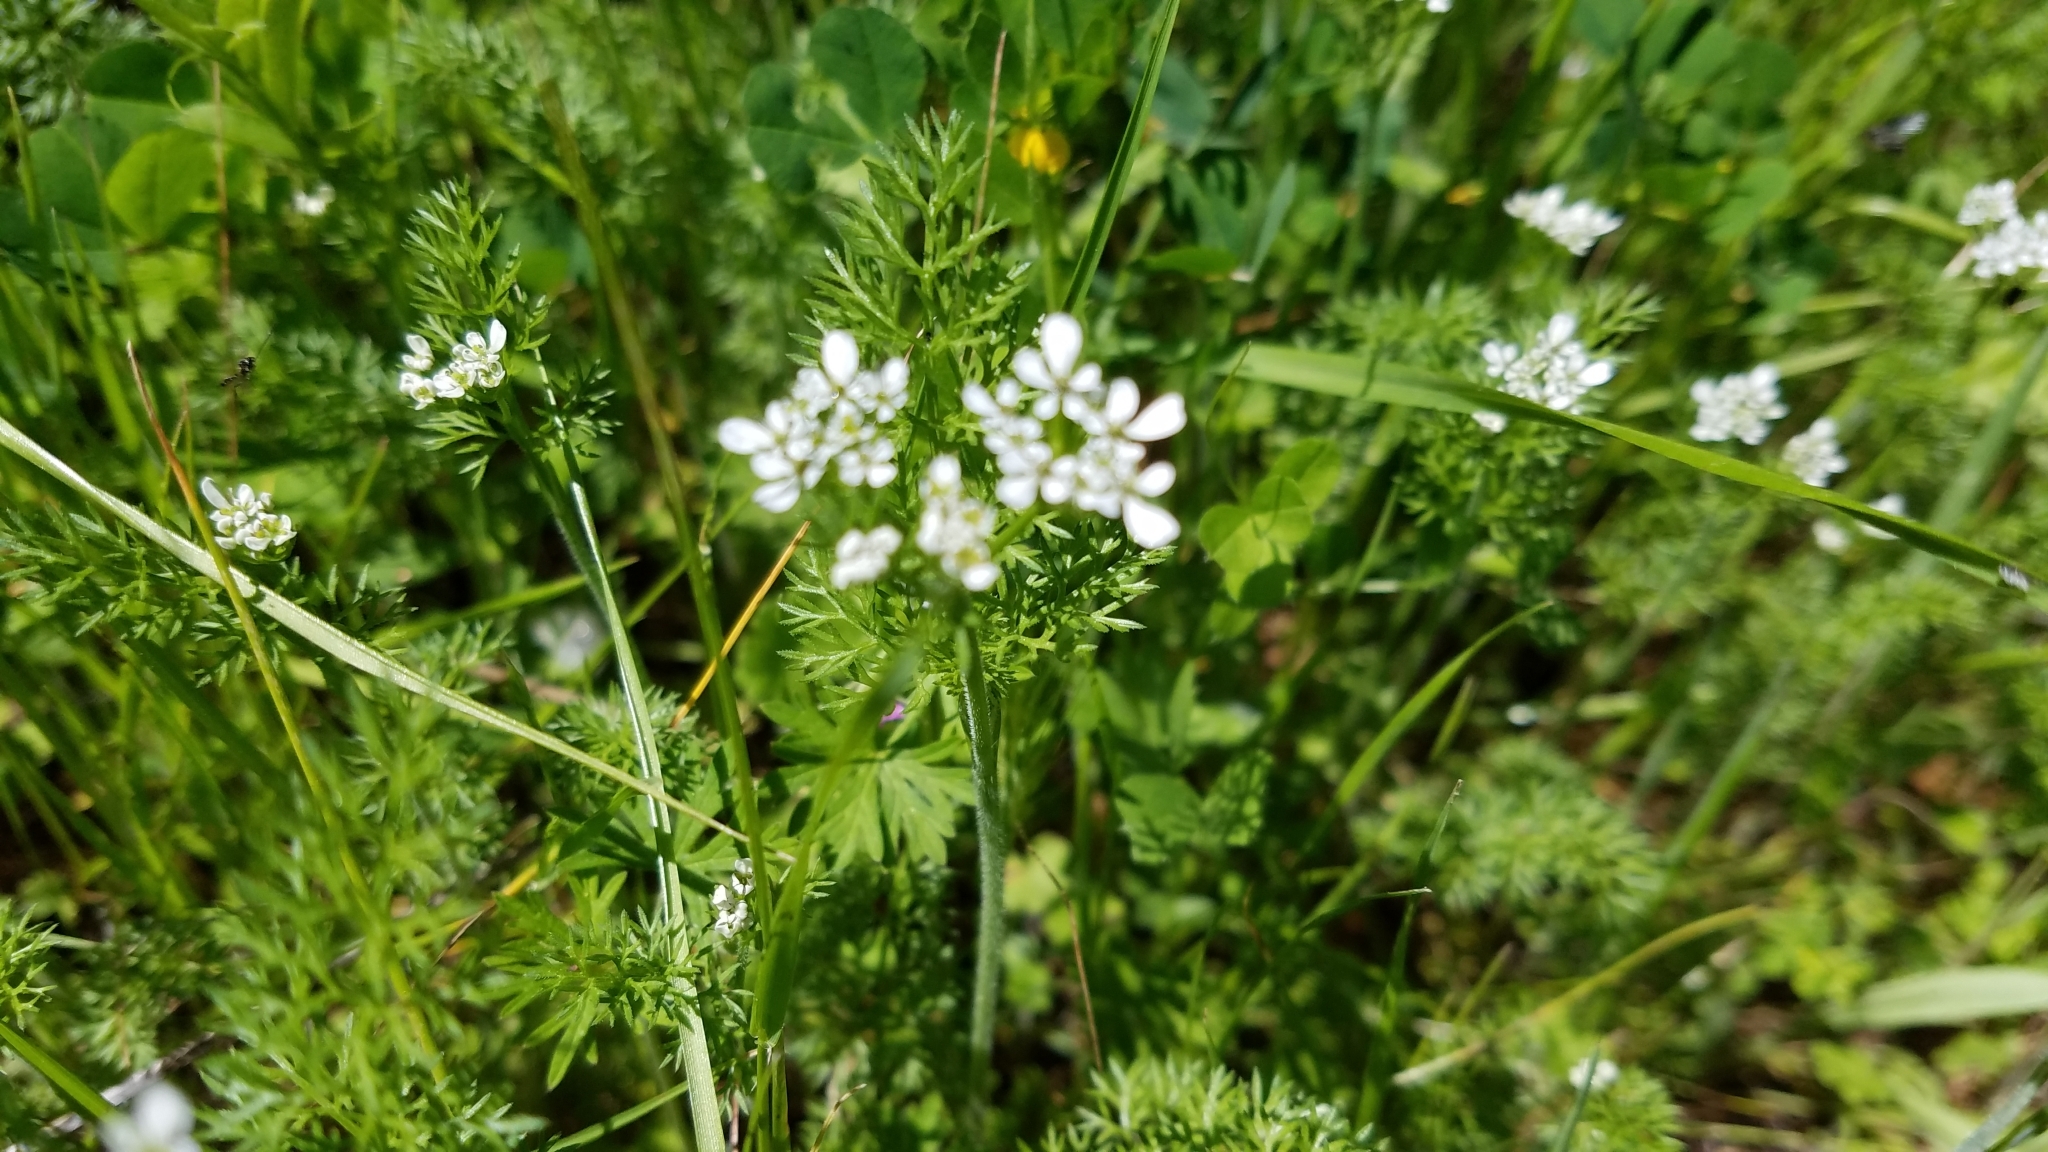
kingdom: Plantae
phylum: Tracheophyta
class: Magnoliopsida
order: Apiales
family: Apiaceae
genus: Scandix
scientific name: Scandix pecten-veneris
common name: Shepherd's-needle
